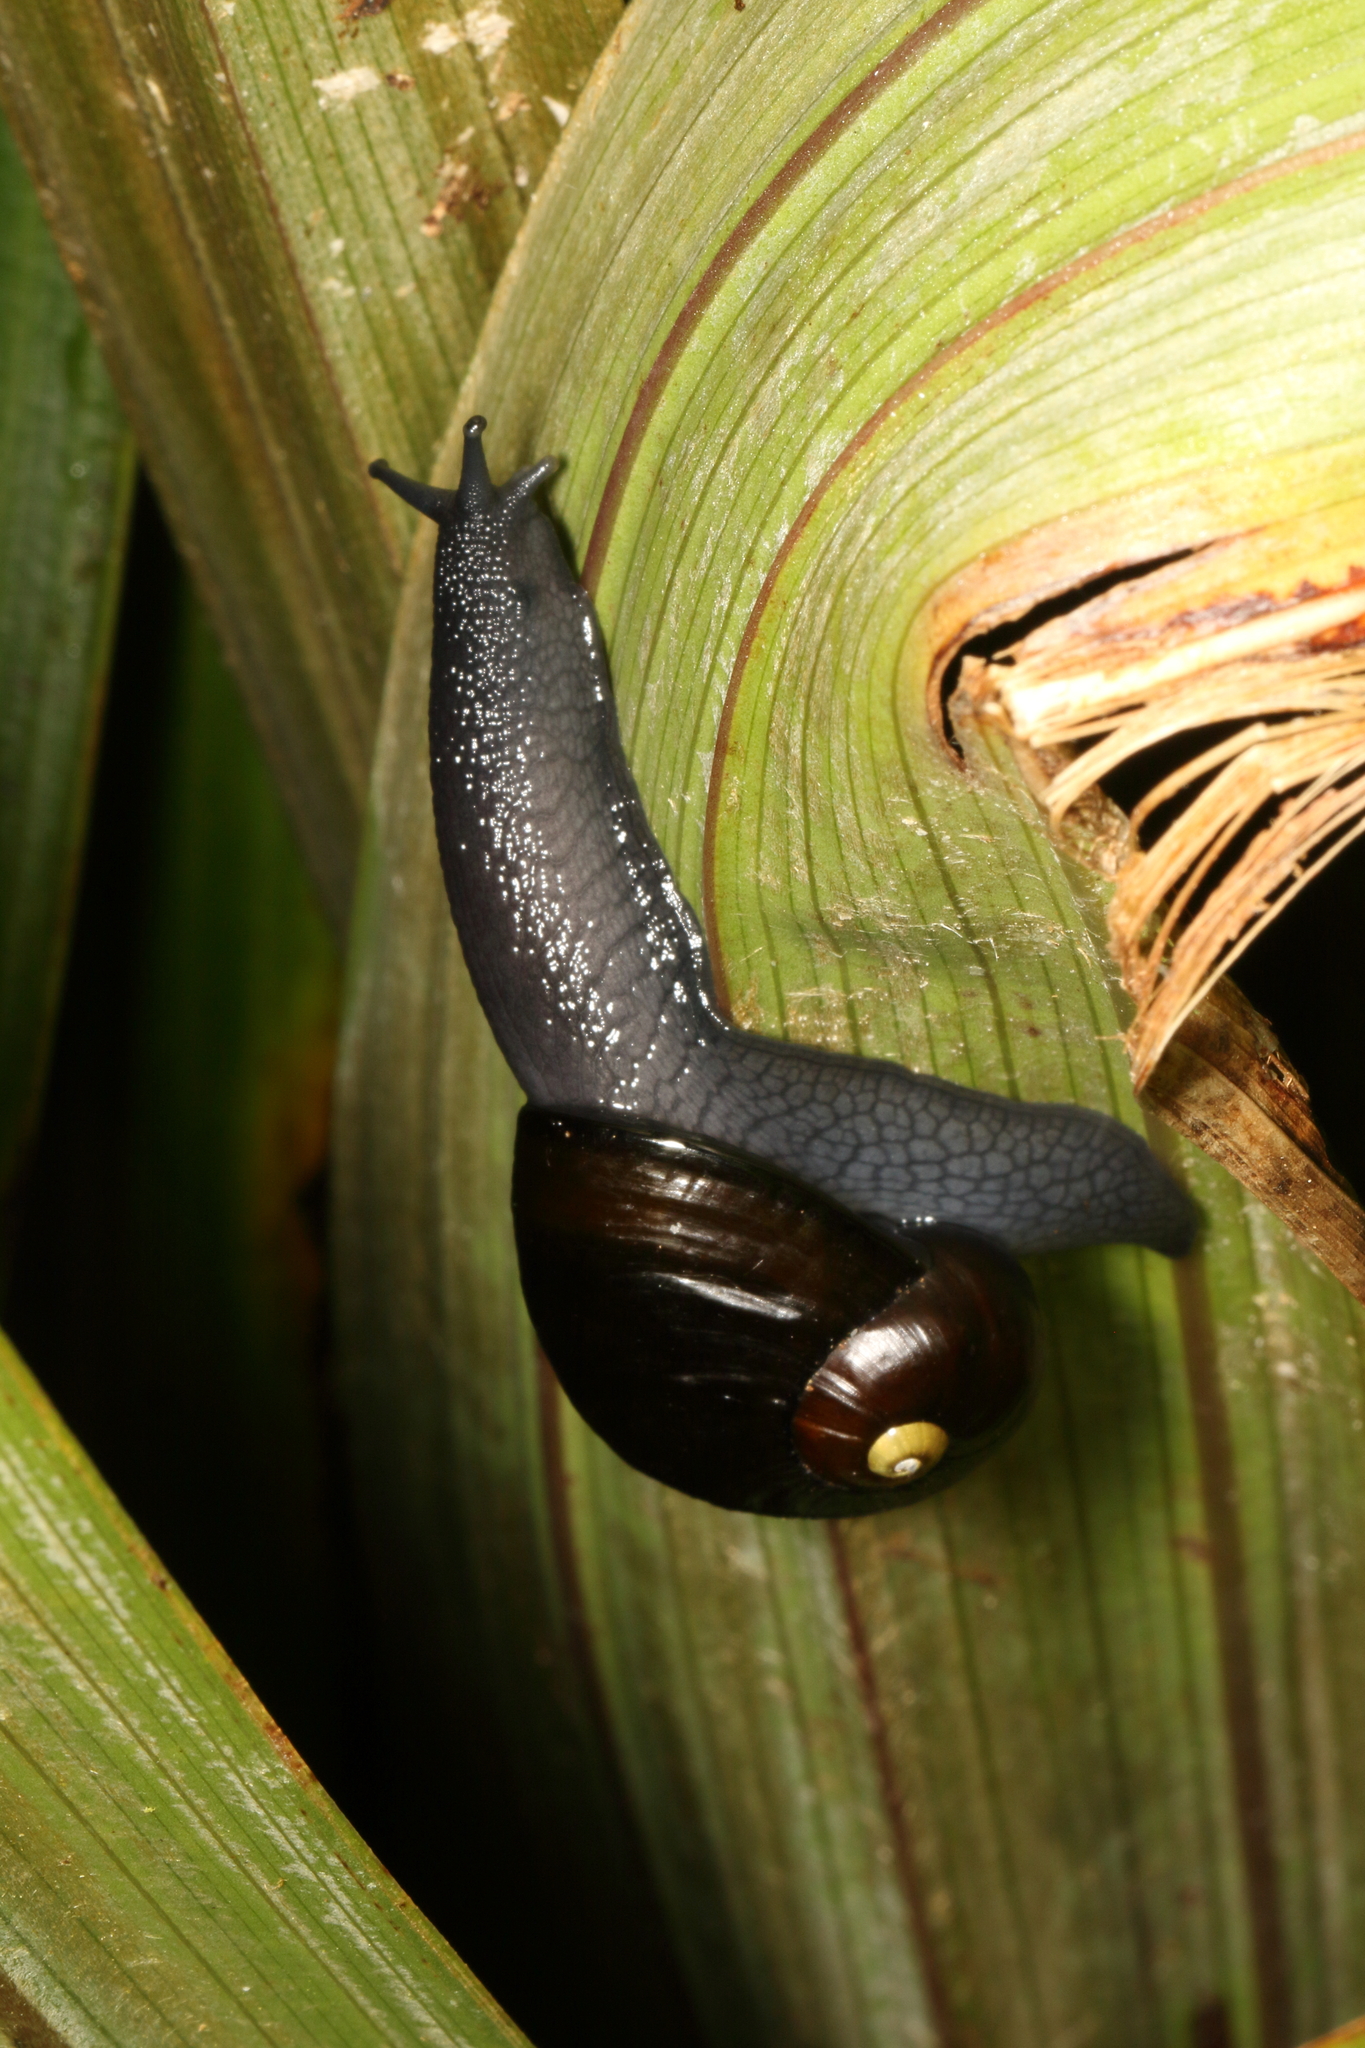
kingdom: Animalia
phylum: Mollusca
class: Gastropoda
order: Stylommatophora
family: Rhytididae
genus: Wainuia
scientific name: Wainuia urnula
